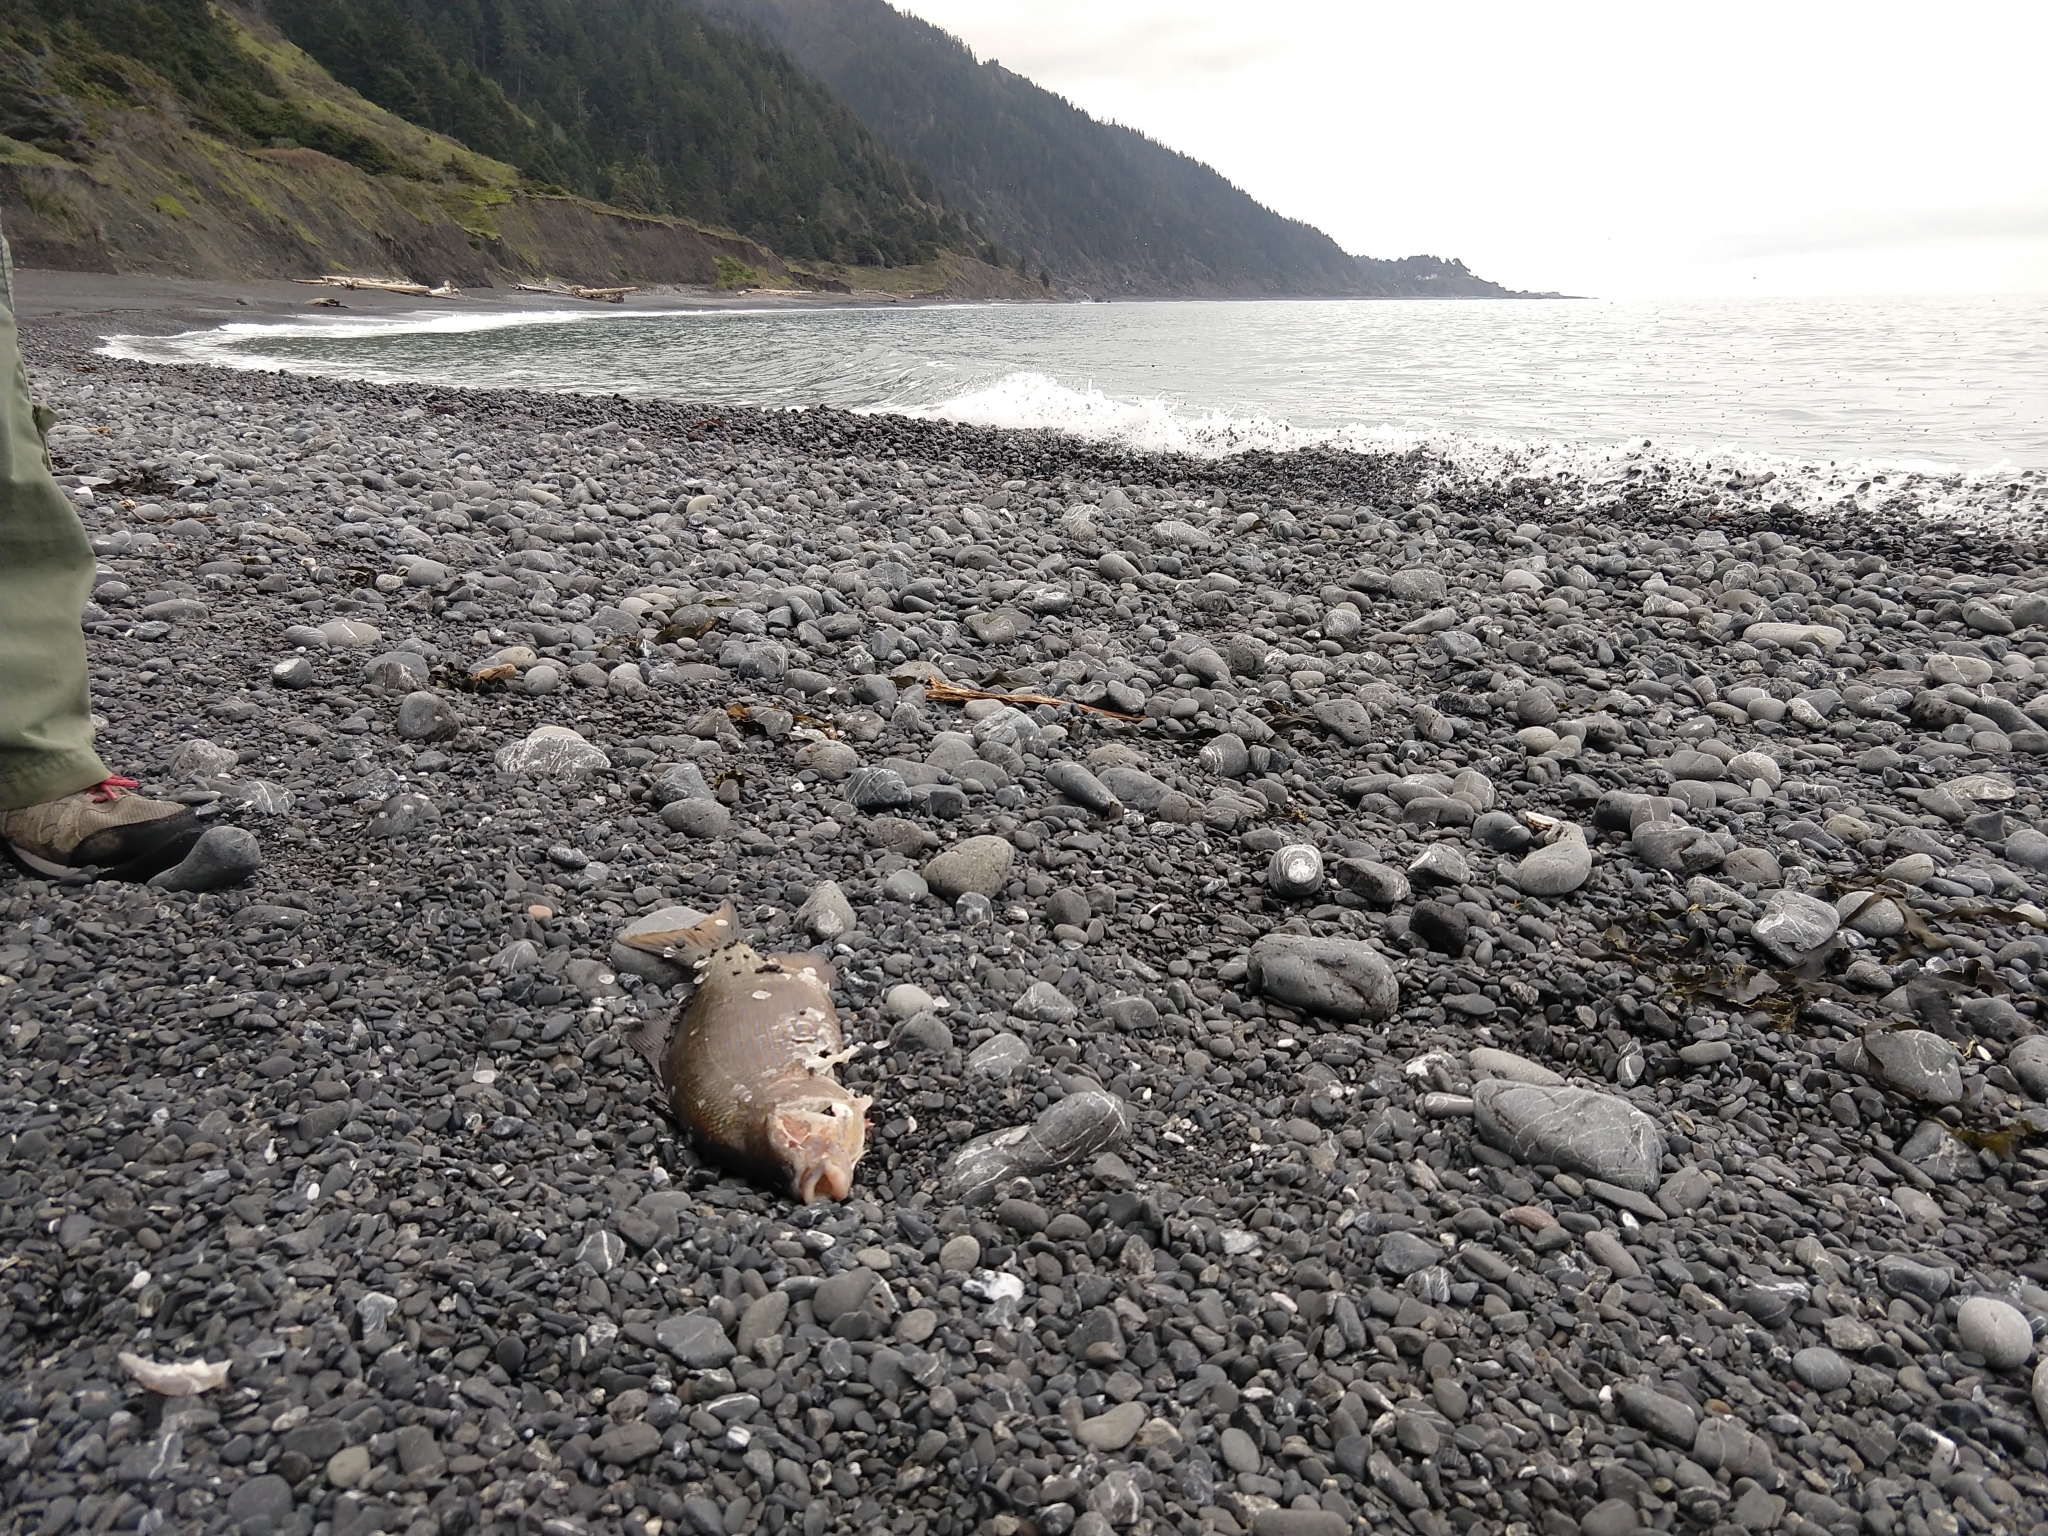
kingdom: Animalia
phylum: Chordata
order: Perciformes
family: Embiotocidae
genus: Embiotoca
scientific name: Embiotoca lateralis
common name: Striped surfperch
